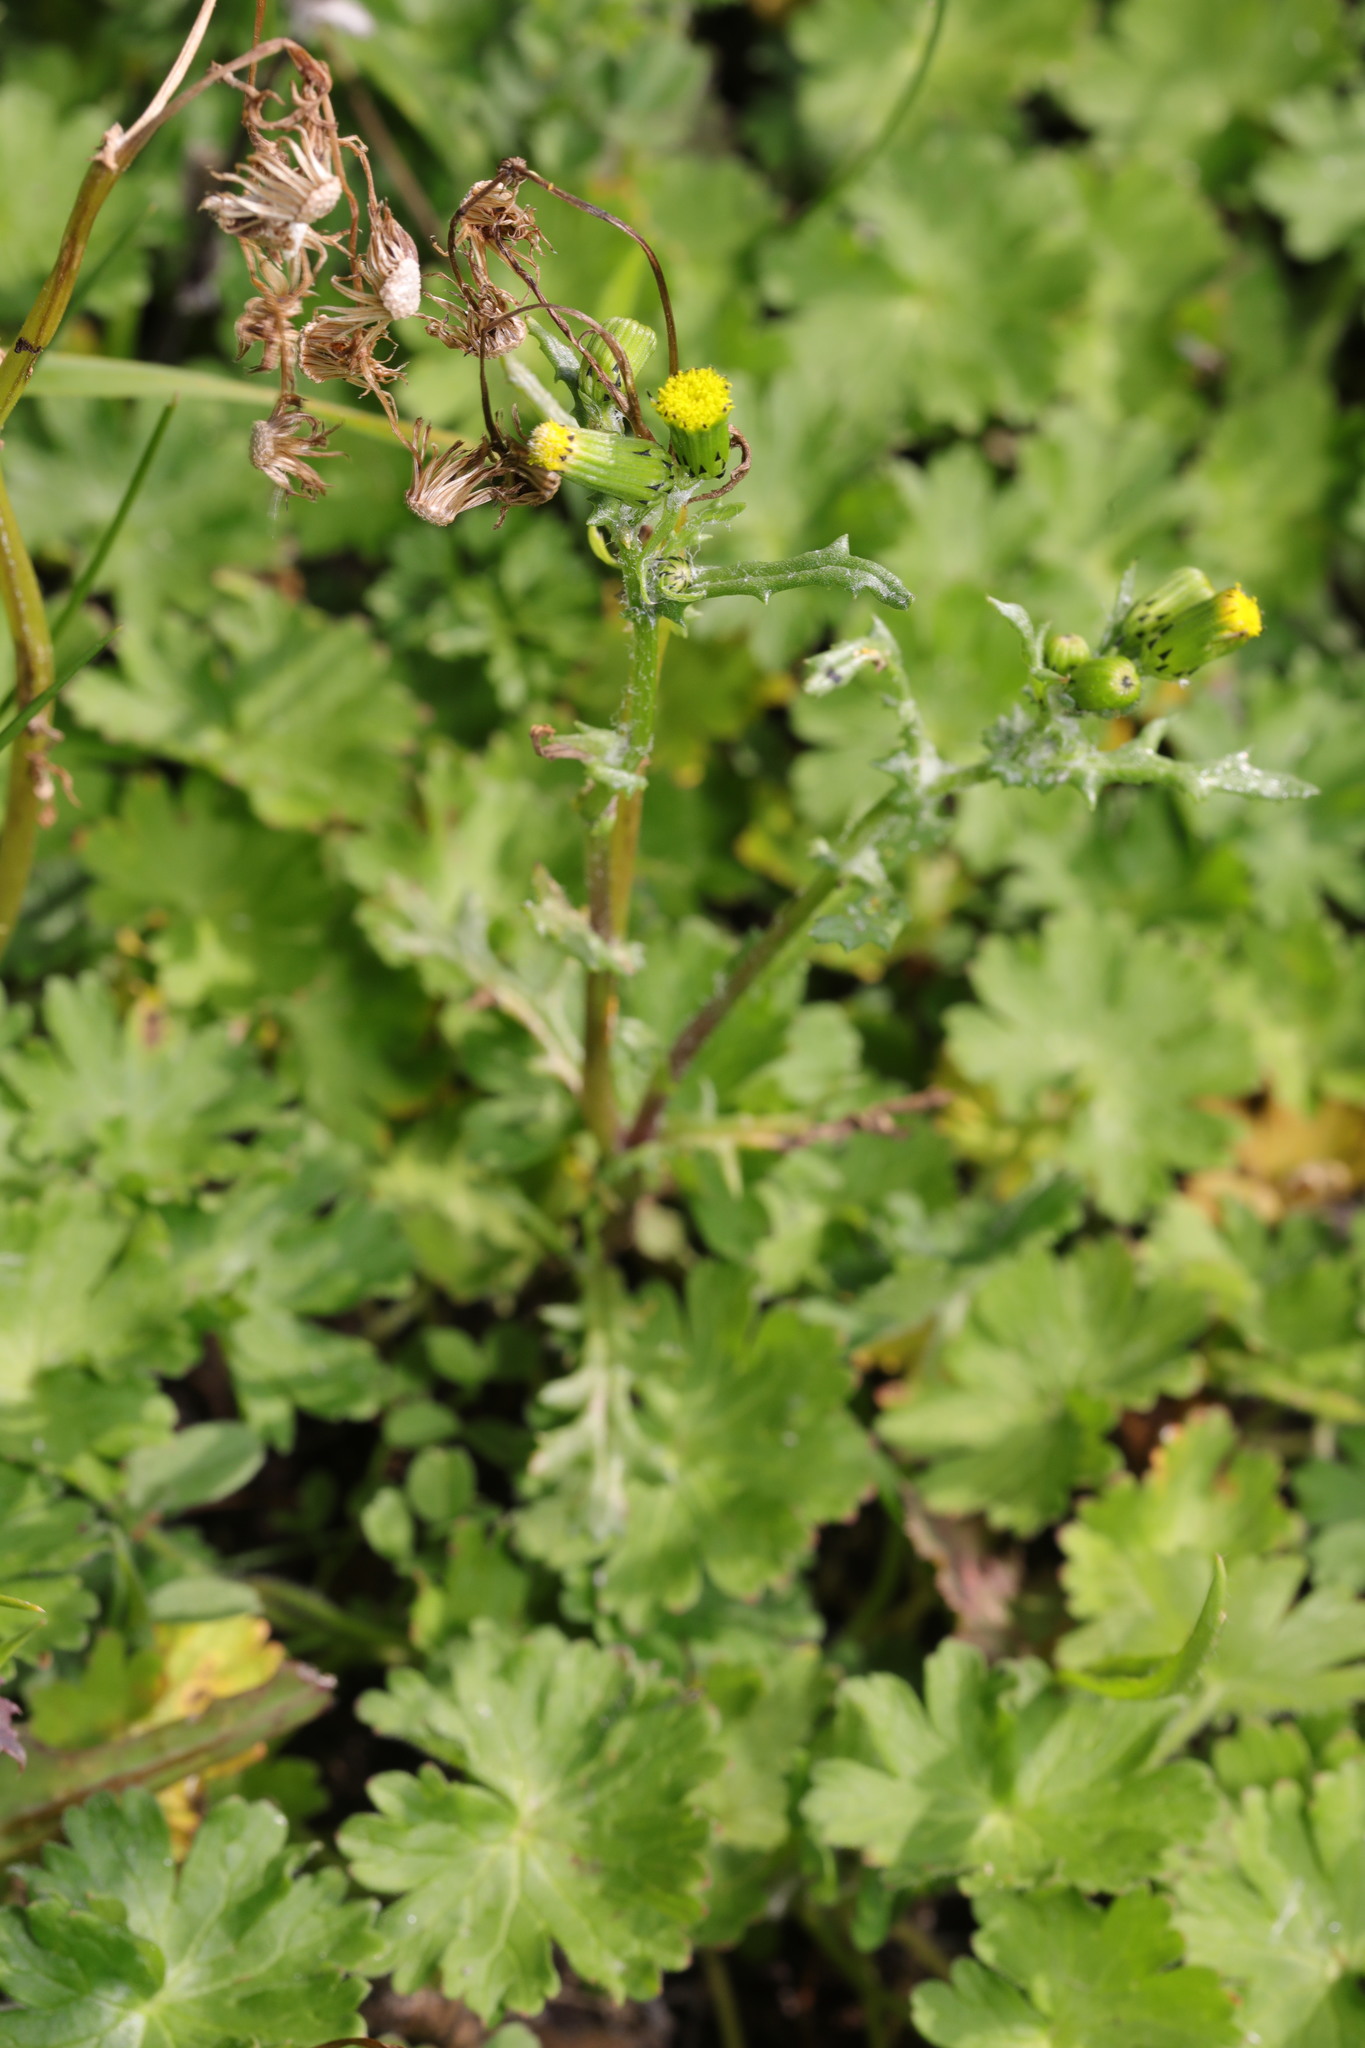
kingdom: Plantae
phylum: Tracheophyta
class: Magnoliopsida
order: Asterales
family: Asteraceae
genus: Senecio
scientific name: Senecio vulgaris
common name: Old-man-in-the-spring
